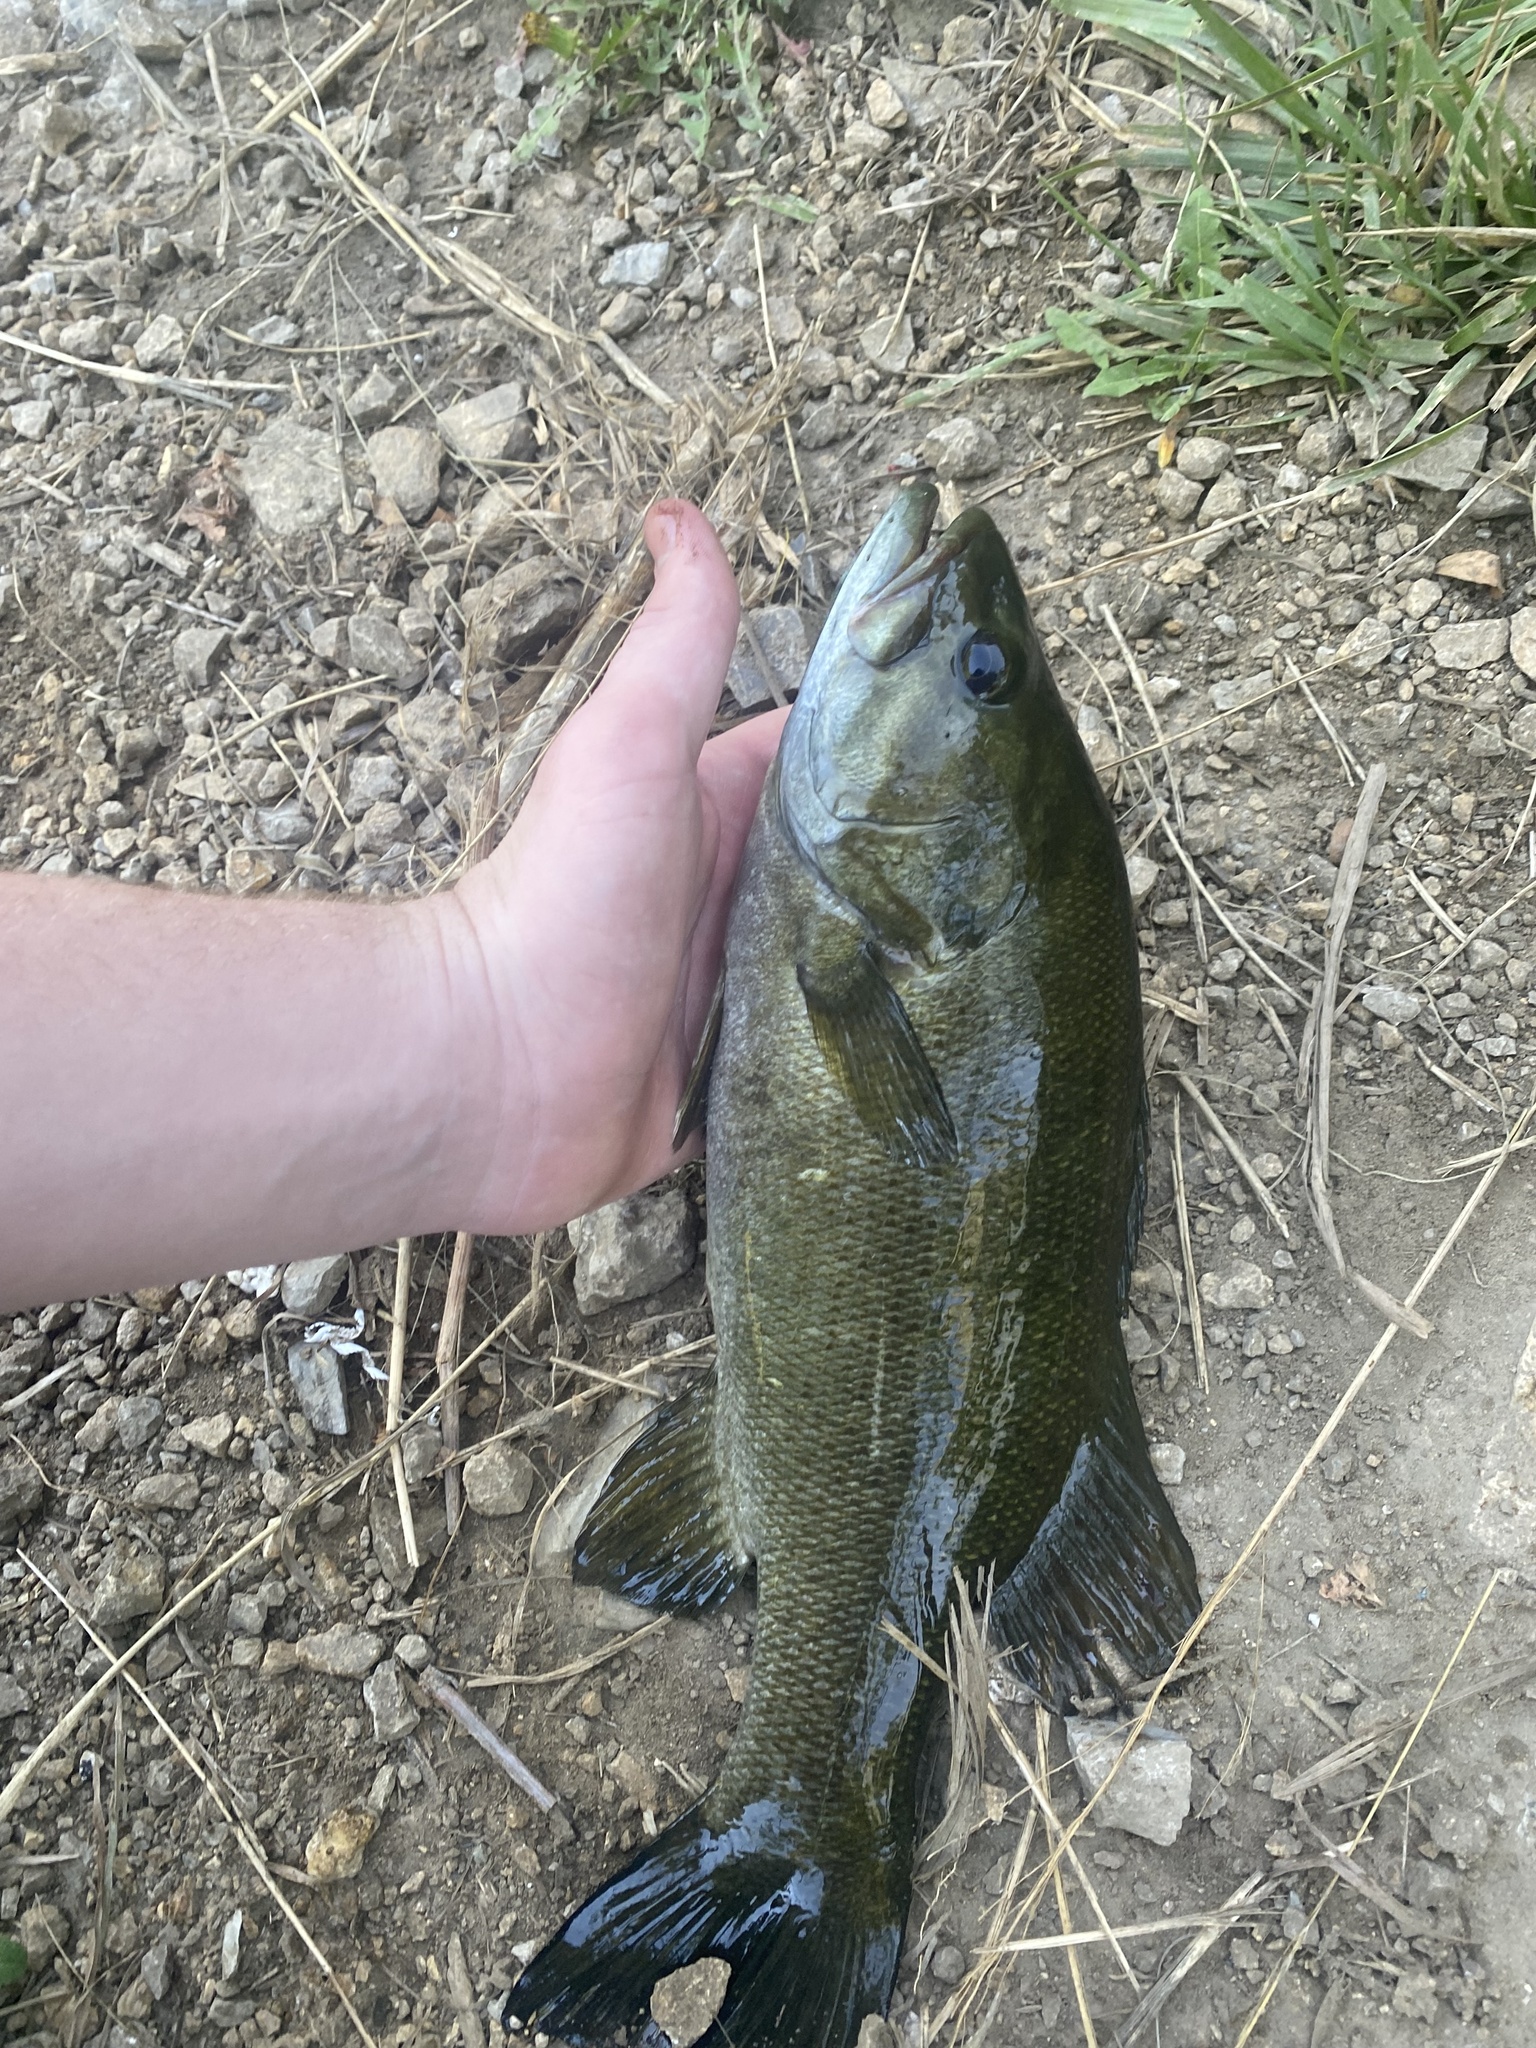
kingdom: Animalia
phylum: Chordata
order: Perciformes
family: Centrarchidae
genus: Micropterus
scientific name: Micropterus dolomieu
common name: Smallmouth bass
